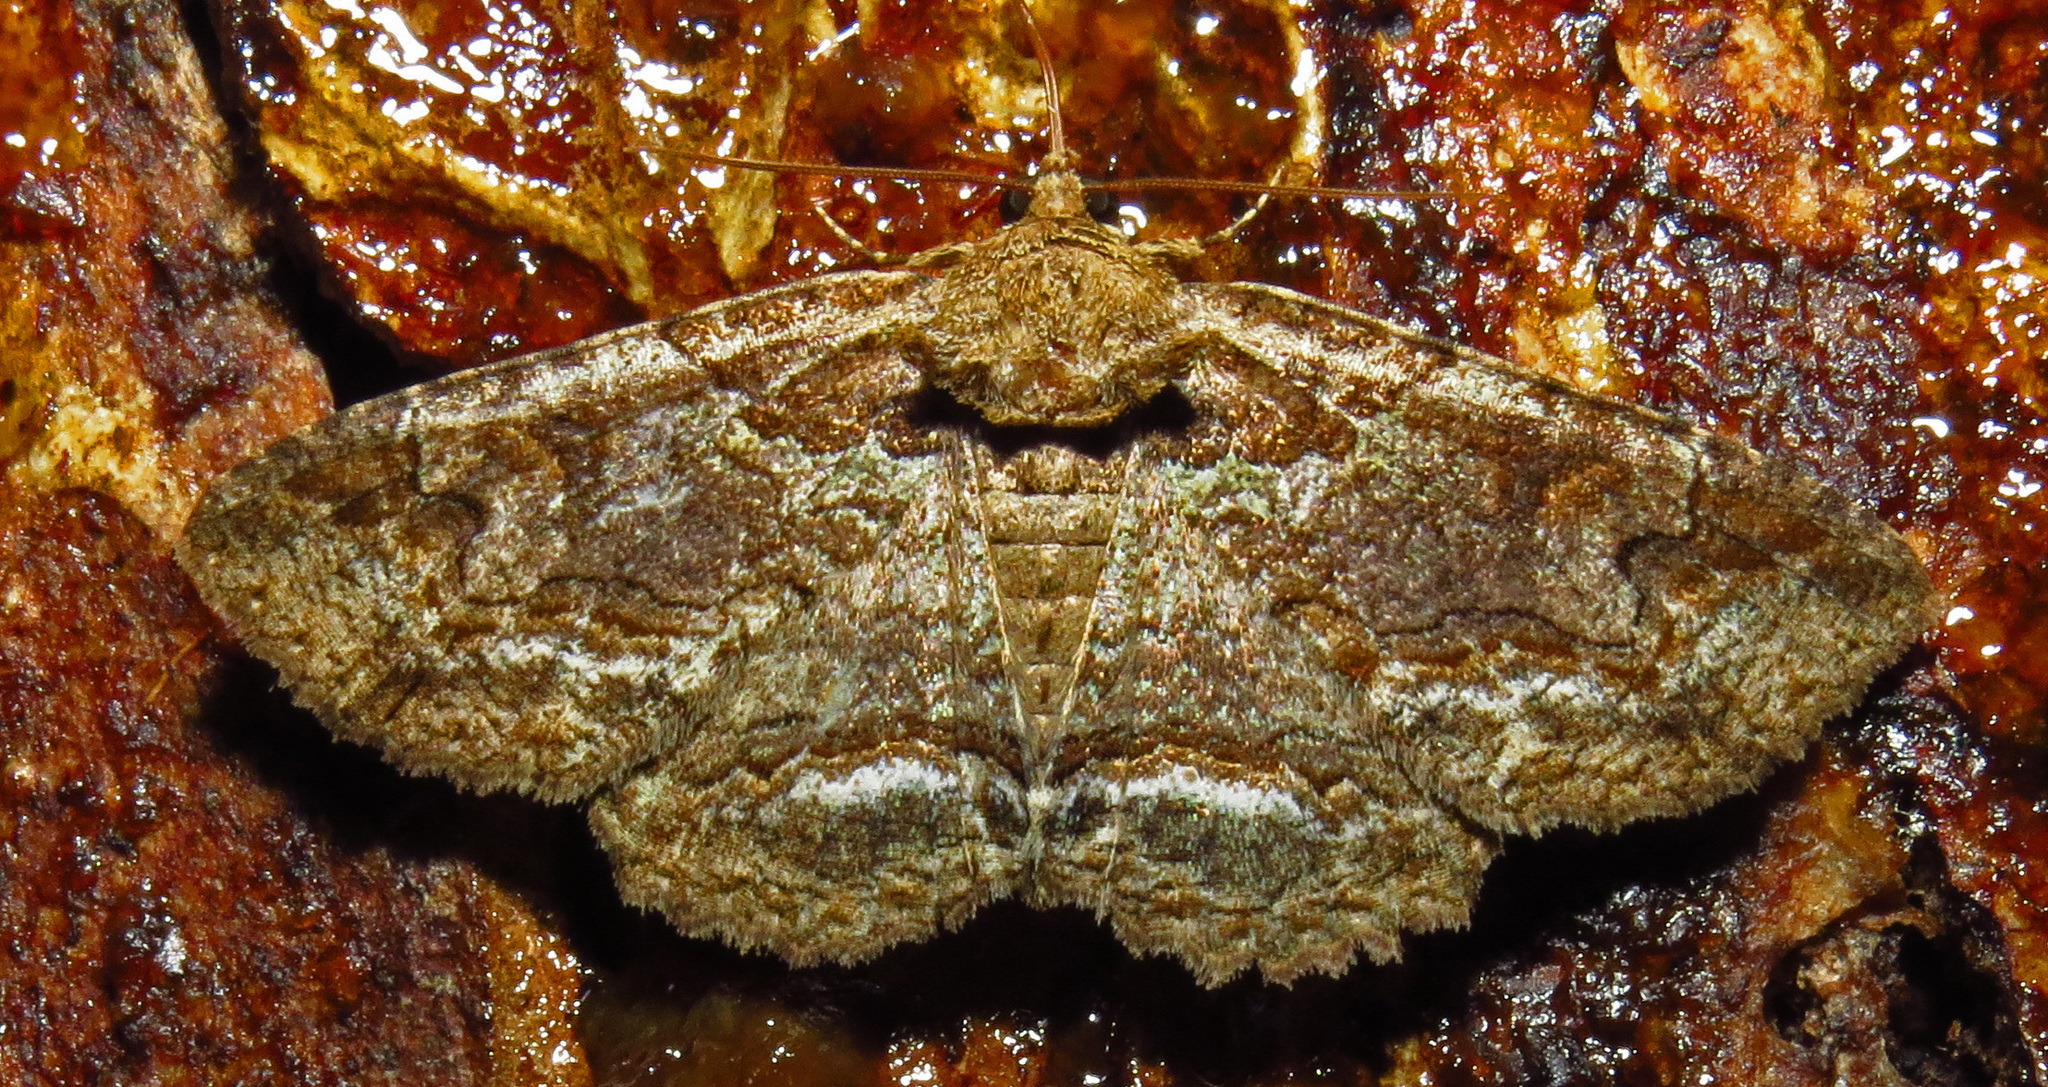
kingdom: Animalia
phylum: Arthropoda
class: Insecta
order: Lepidoptera
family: Erebidae
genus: Zale
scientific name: Zale galbanata
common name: Maple zale
